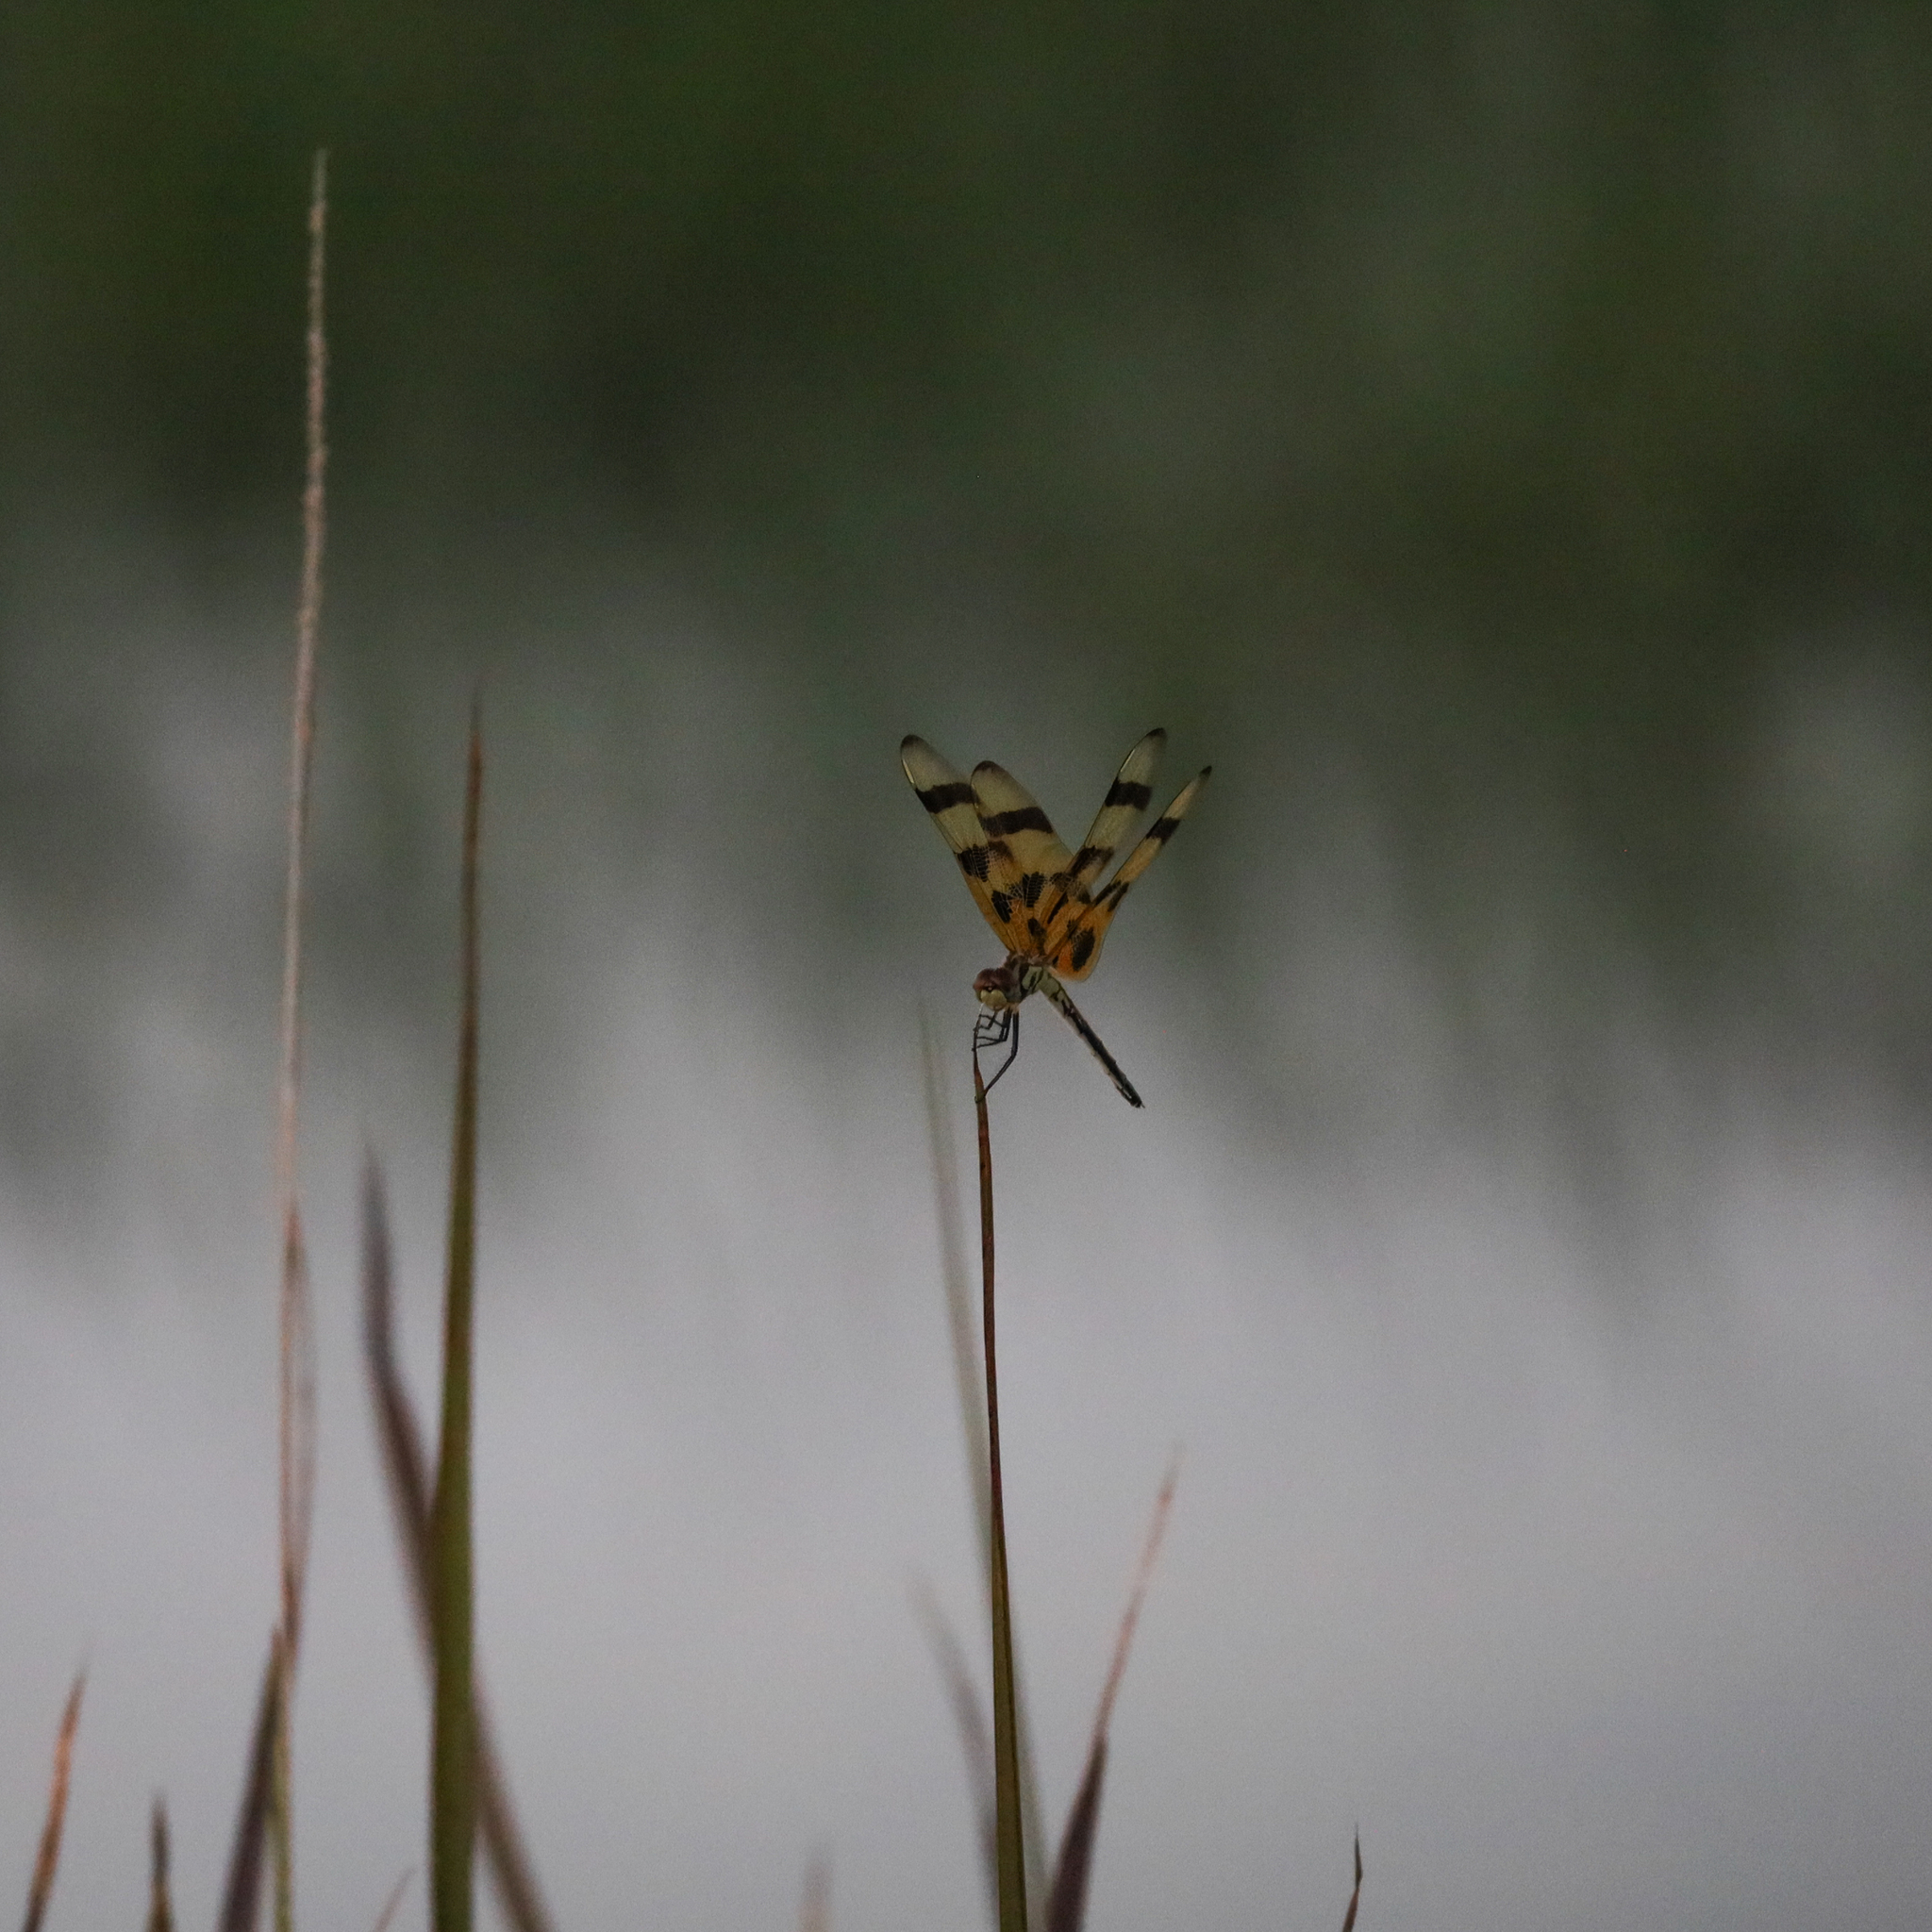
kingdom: Animalia
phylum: Arthropoda
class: Insecta
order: Odonata
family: Libellulidae
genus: Celithemis
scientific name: Celithemis eponina
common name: Halloween pennant
